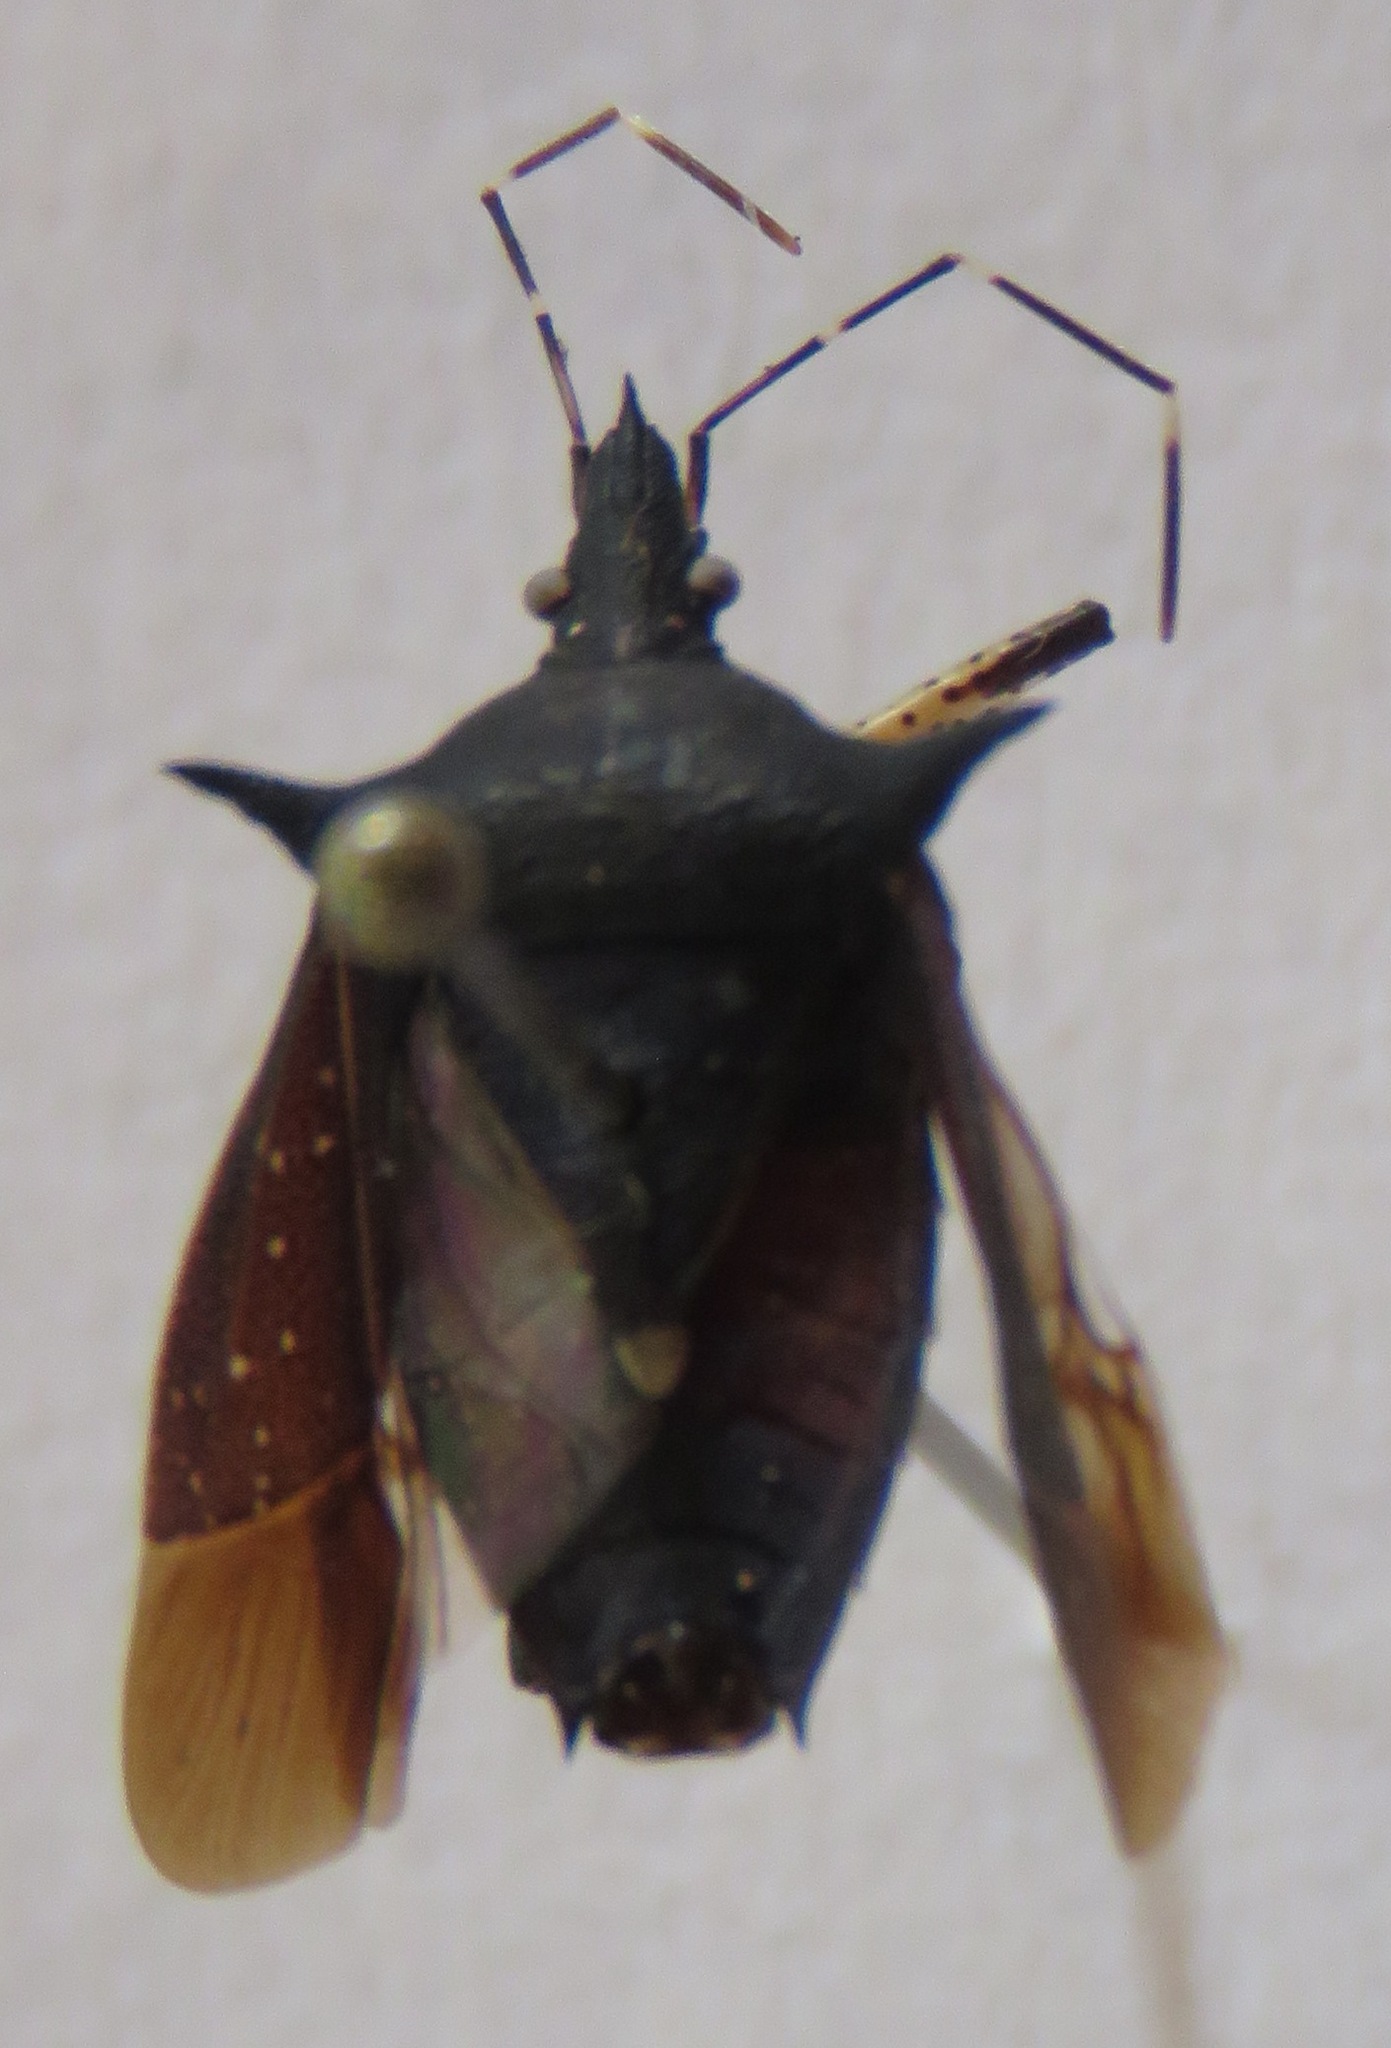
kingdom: Animalia
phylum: Arthropoda
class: Insecta
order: Hemiptera
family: Pentatomidae
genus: Proxys
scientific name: Proxys punctulatus
